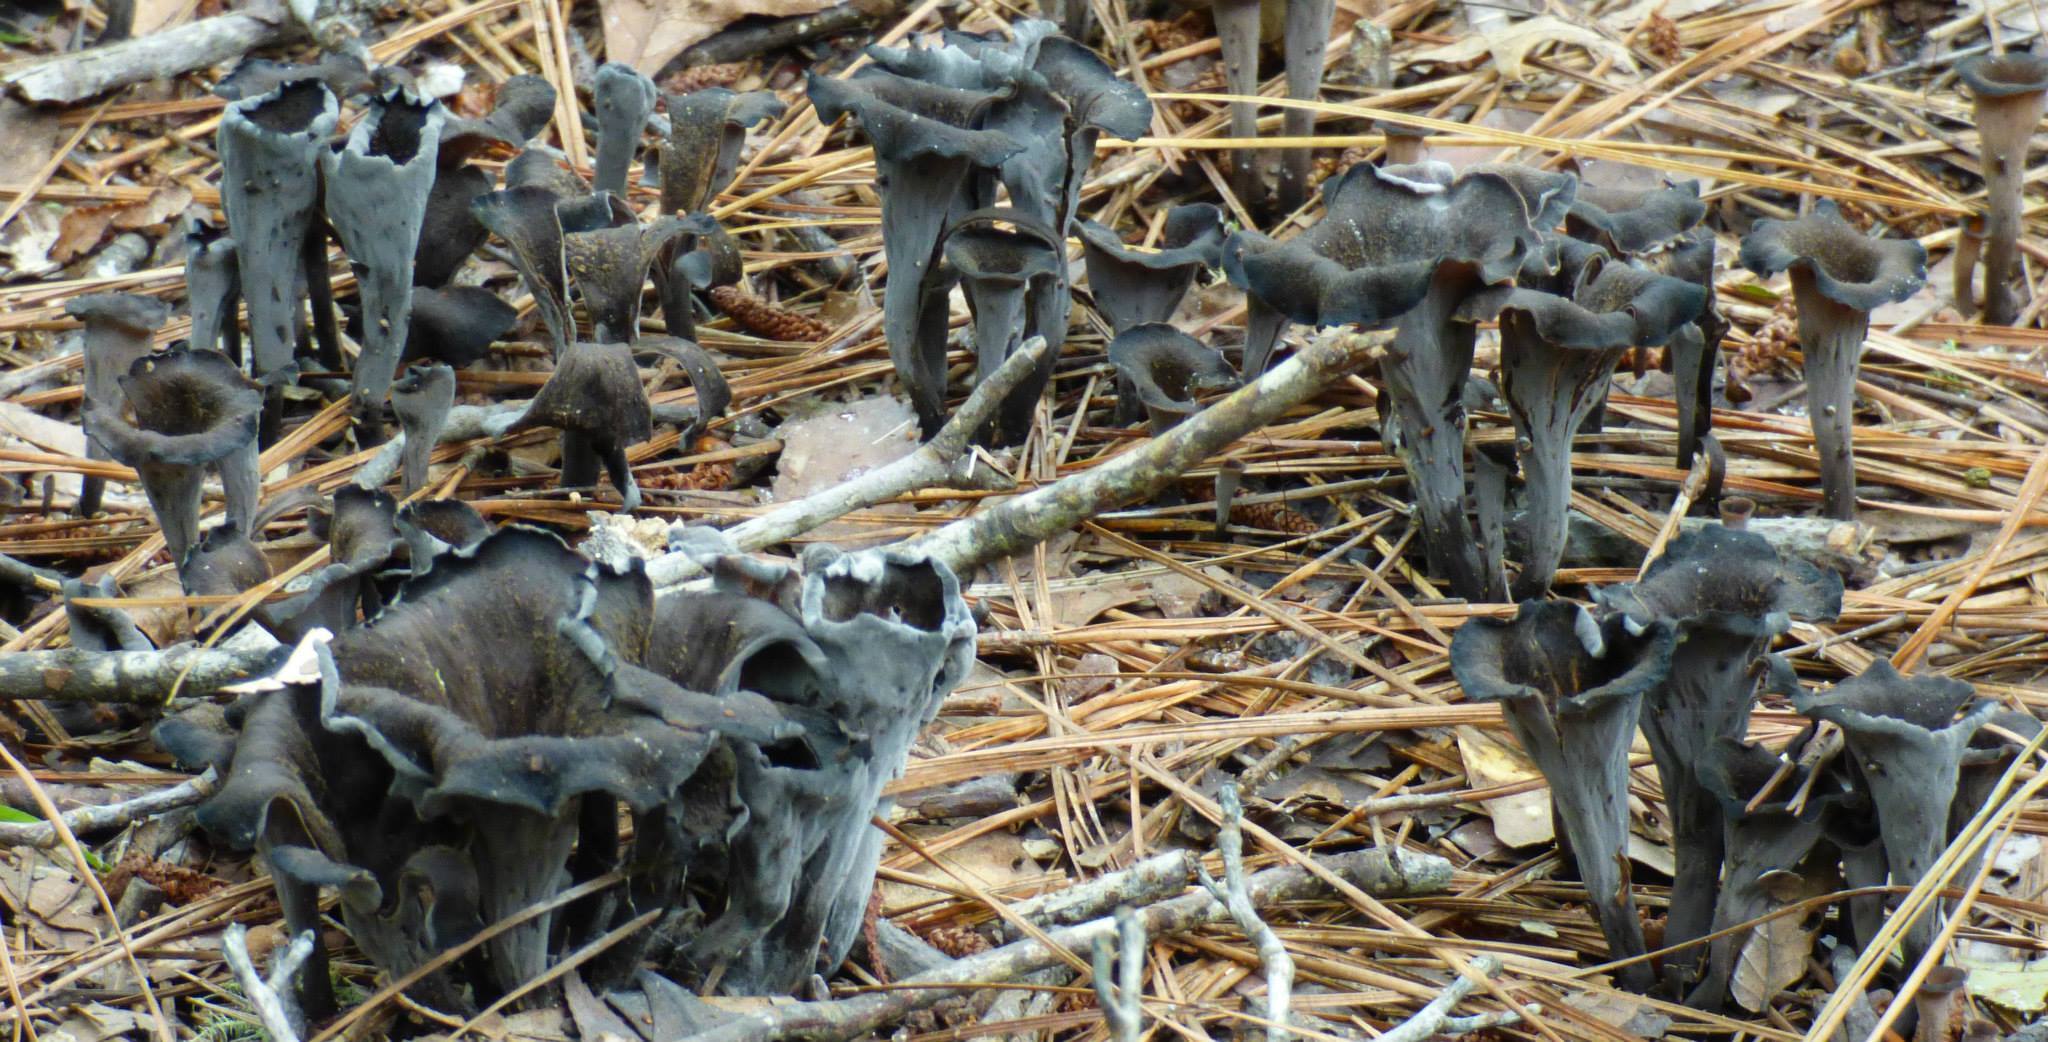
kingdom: Fungi
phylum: Basidiomycota
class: Agaricomycetes
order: Cantharellales
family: Hydnaceae
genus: Craterellus
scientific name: Craterellus cornucopioides
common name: Horn of plenty
